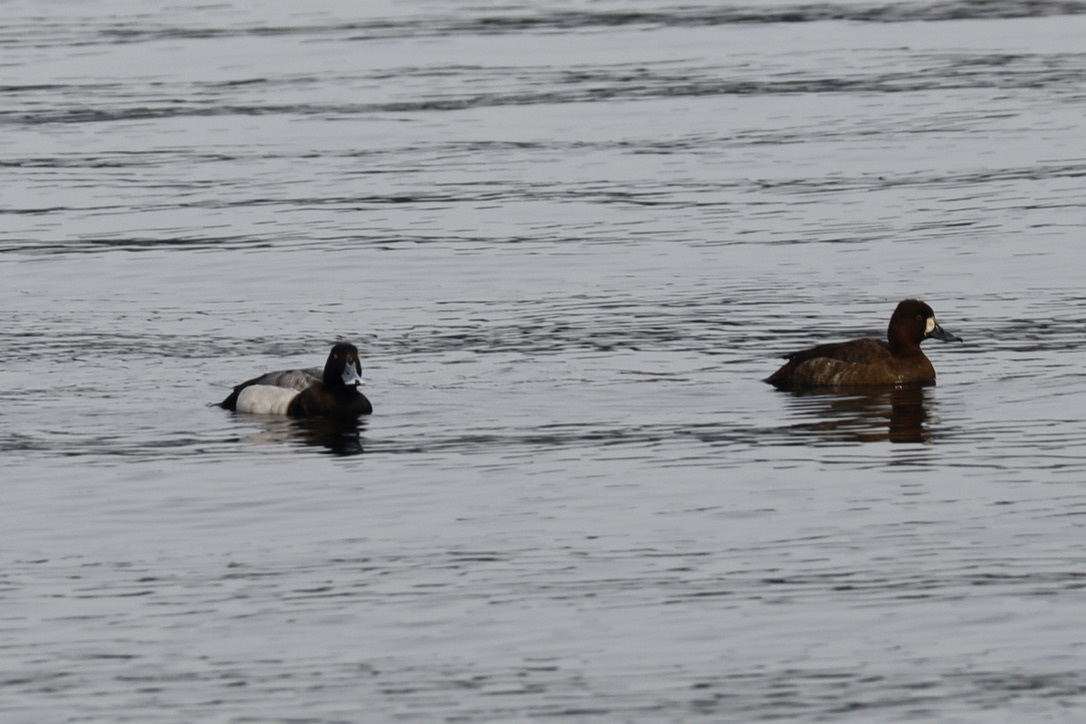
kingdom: Animalia
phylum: Chordata
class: Aves
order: Anseriformes
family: Anatidae
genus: Aythya
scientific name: Aythya marila
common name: Greater scaup
